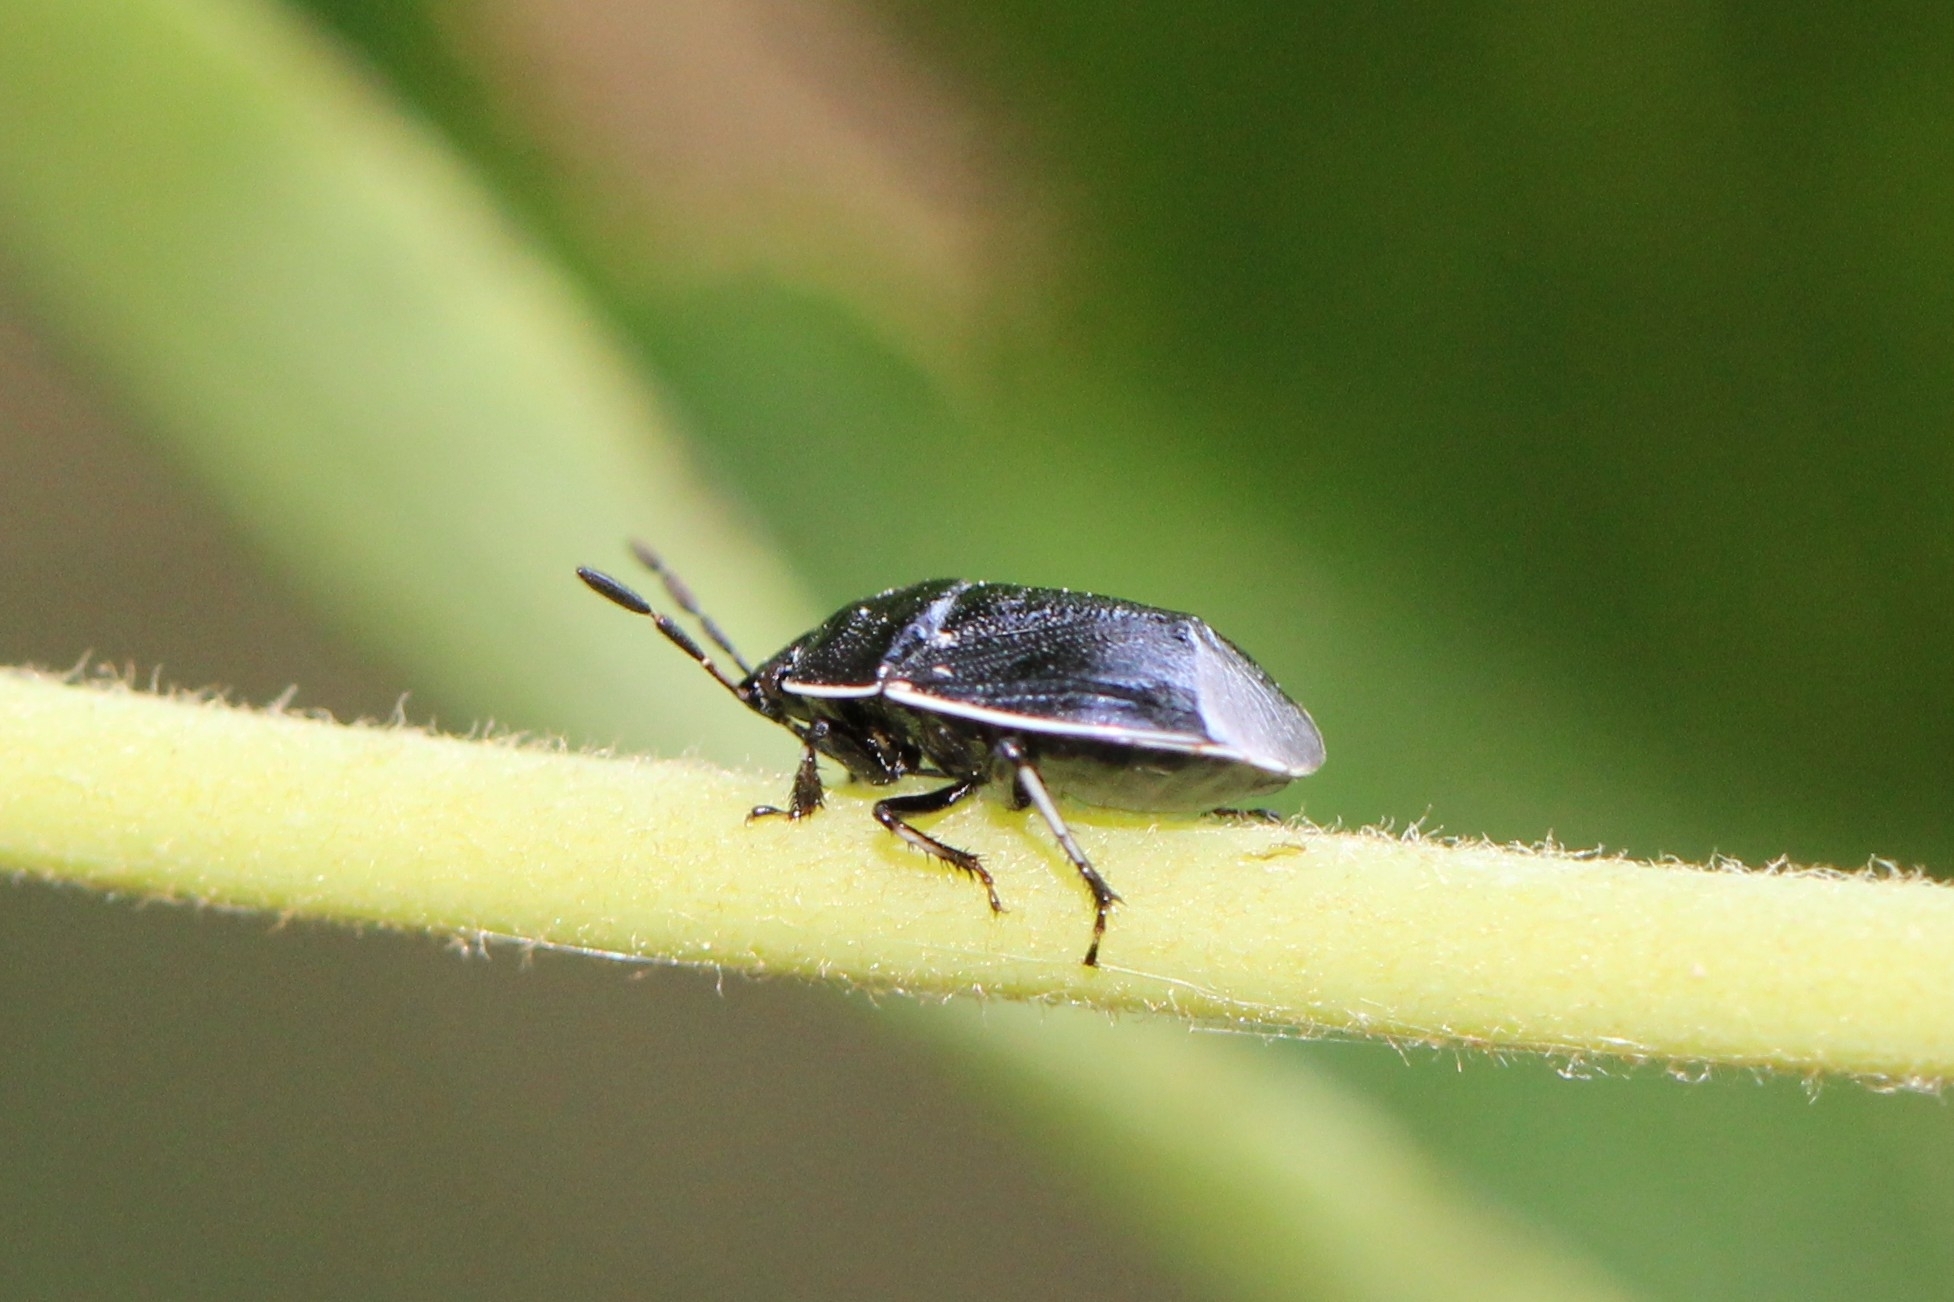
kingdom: Animalia
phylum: Arthropoda
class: Insecta
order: Hemiptera
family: Cydnidae
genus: Sehirus
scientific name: Sehirus cinctus
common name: White-margined burrower bug
